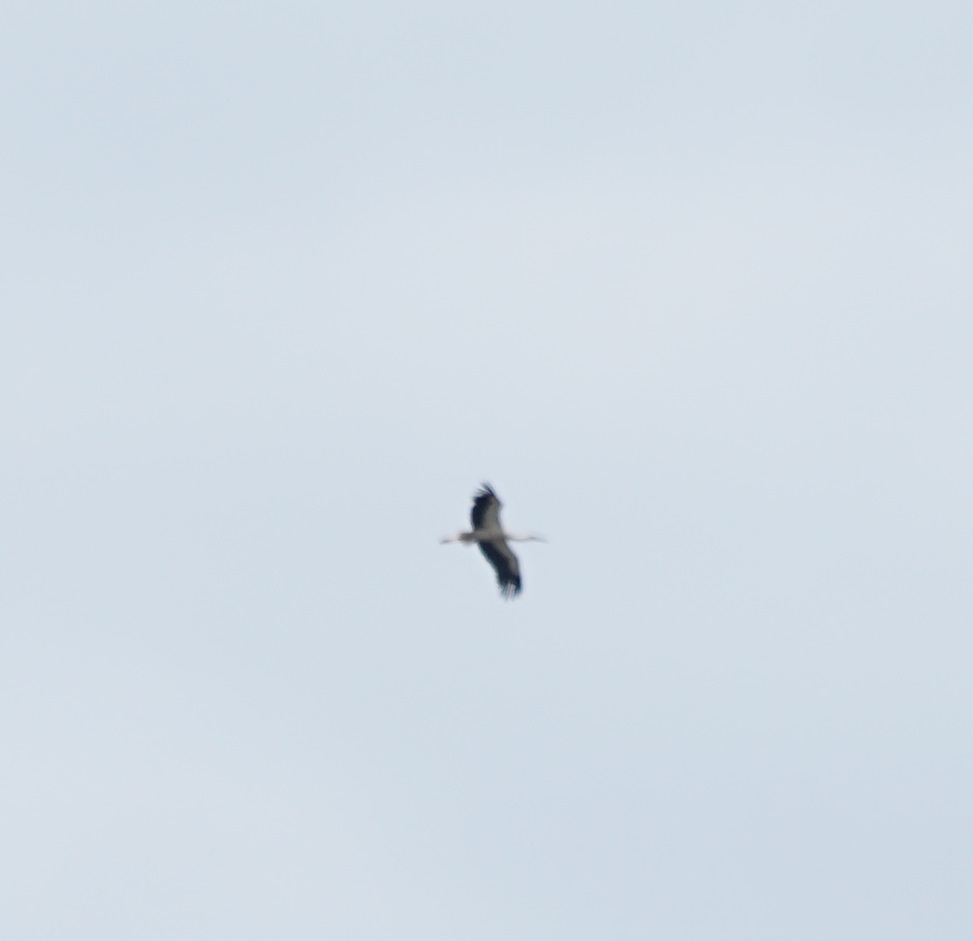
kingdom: Animalia
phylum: Chordata
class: Aves
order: Ciconiiformes
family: Ciconiidae
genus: Ciconia
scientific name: Ciconia ciconia
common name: White stork
